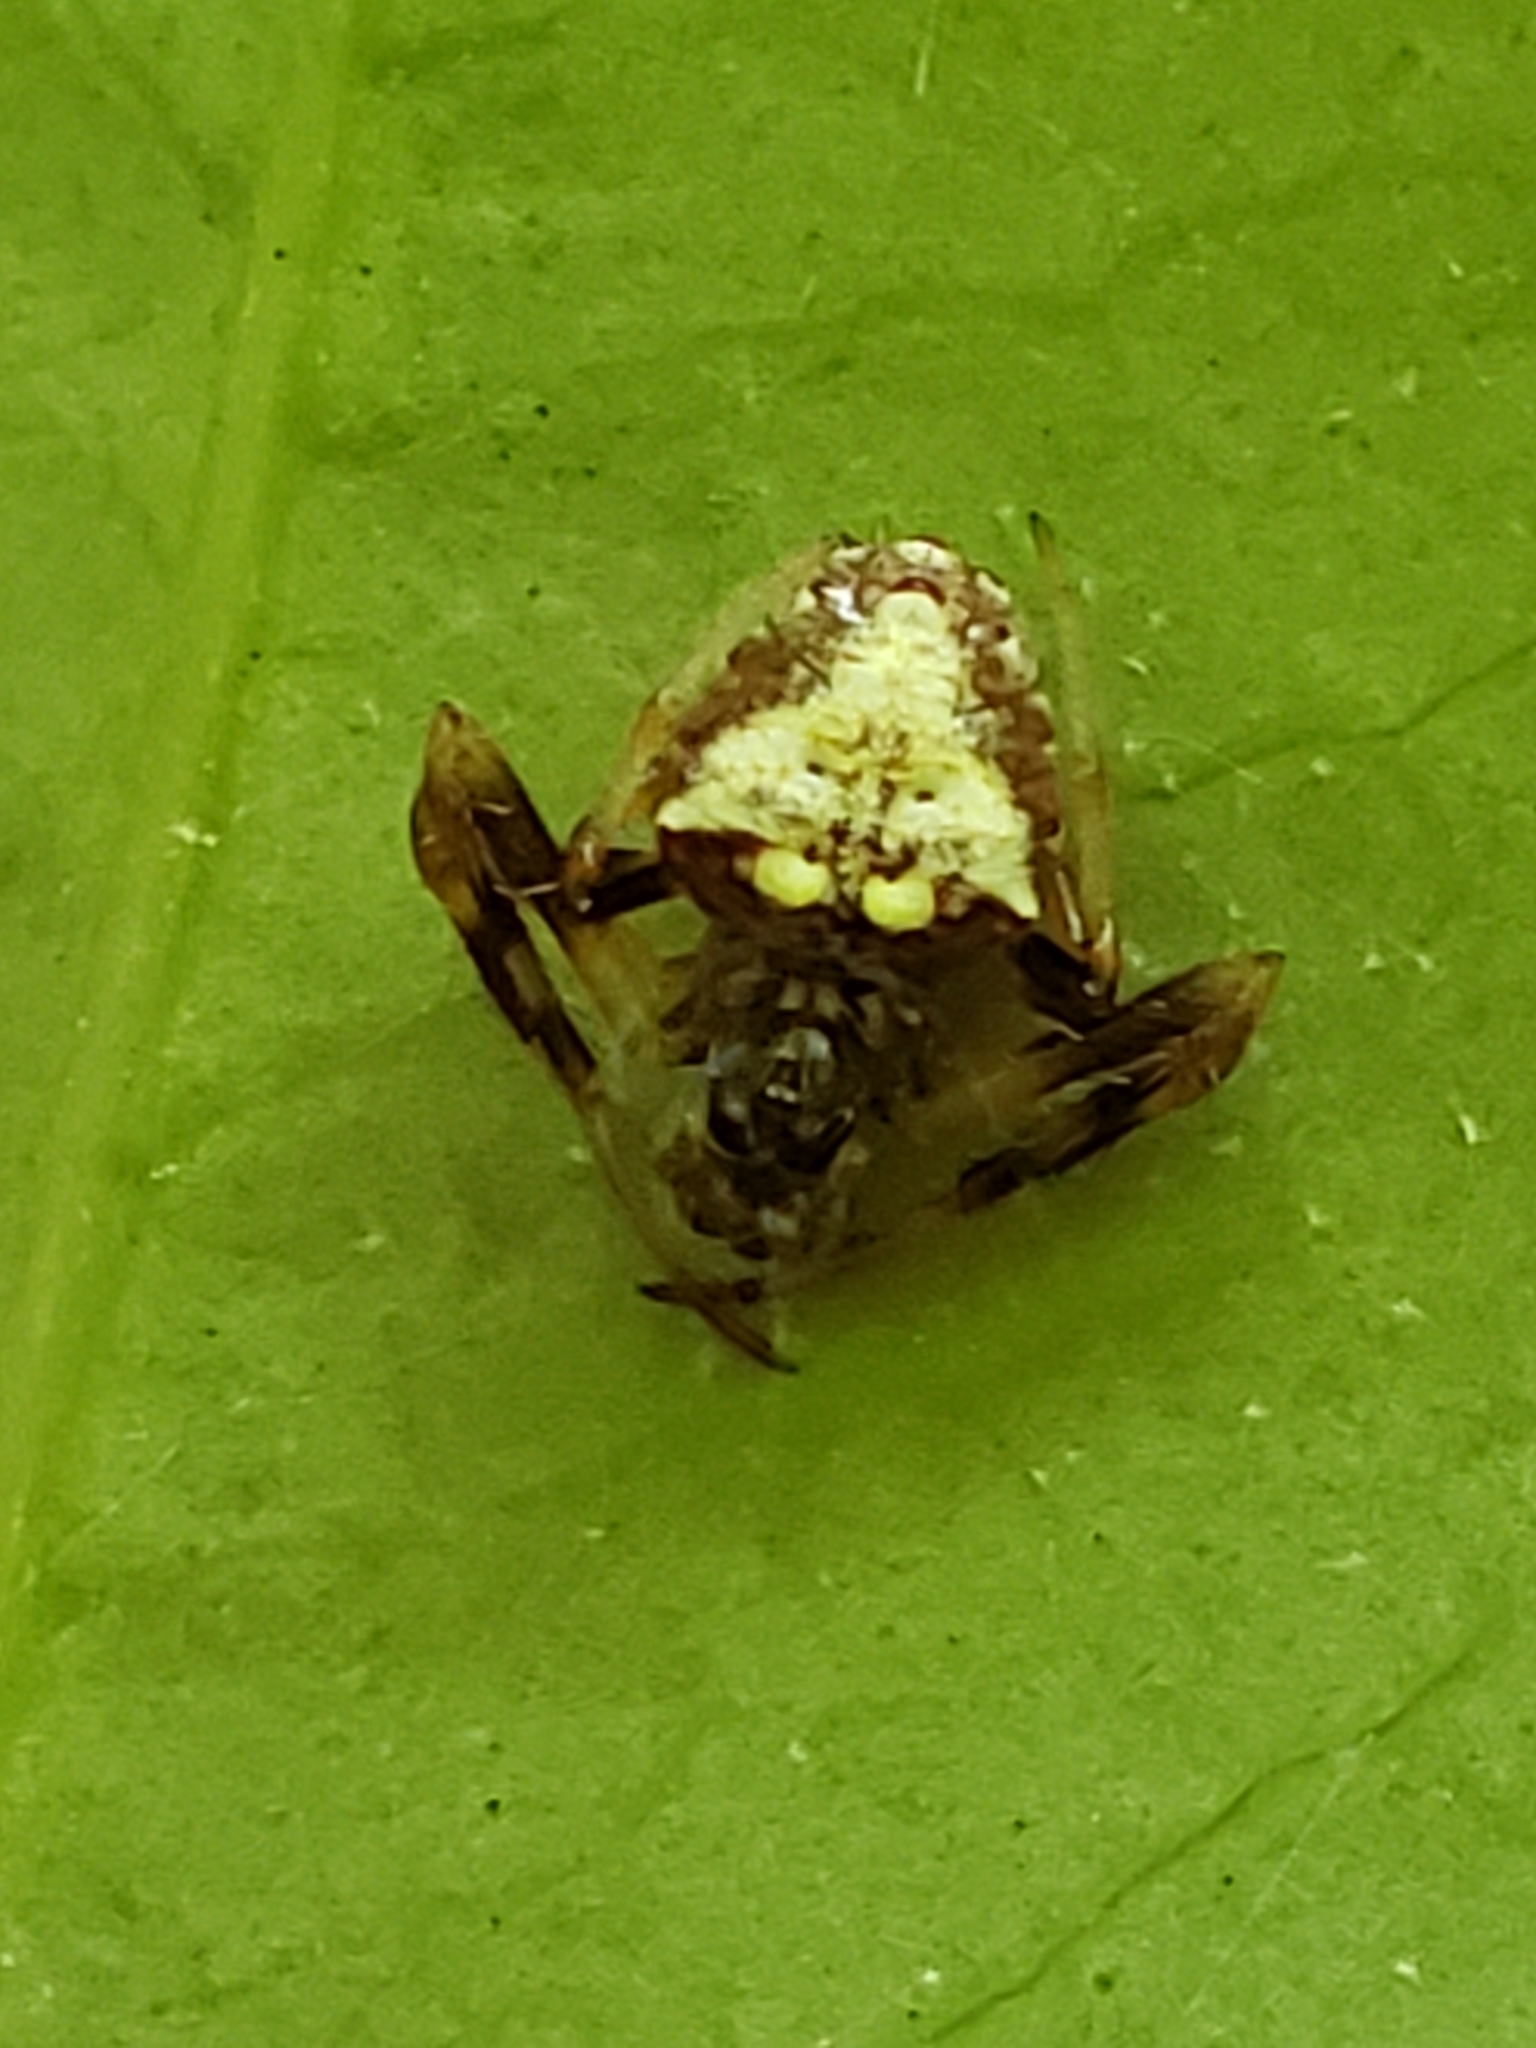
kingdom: Animalia
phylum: Arthropoda
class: Arachnida
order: Araneae
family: Araneidae
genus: Verrucosa
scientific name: Verrucosa arenata
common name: Orb weavers
